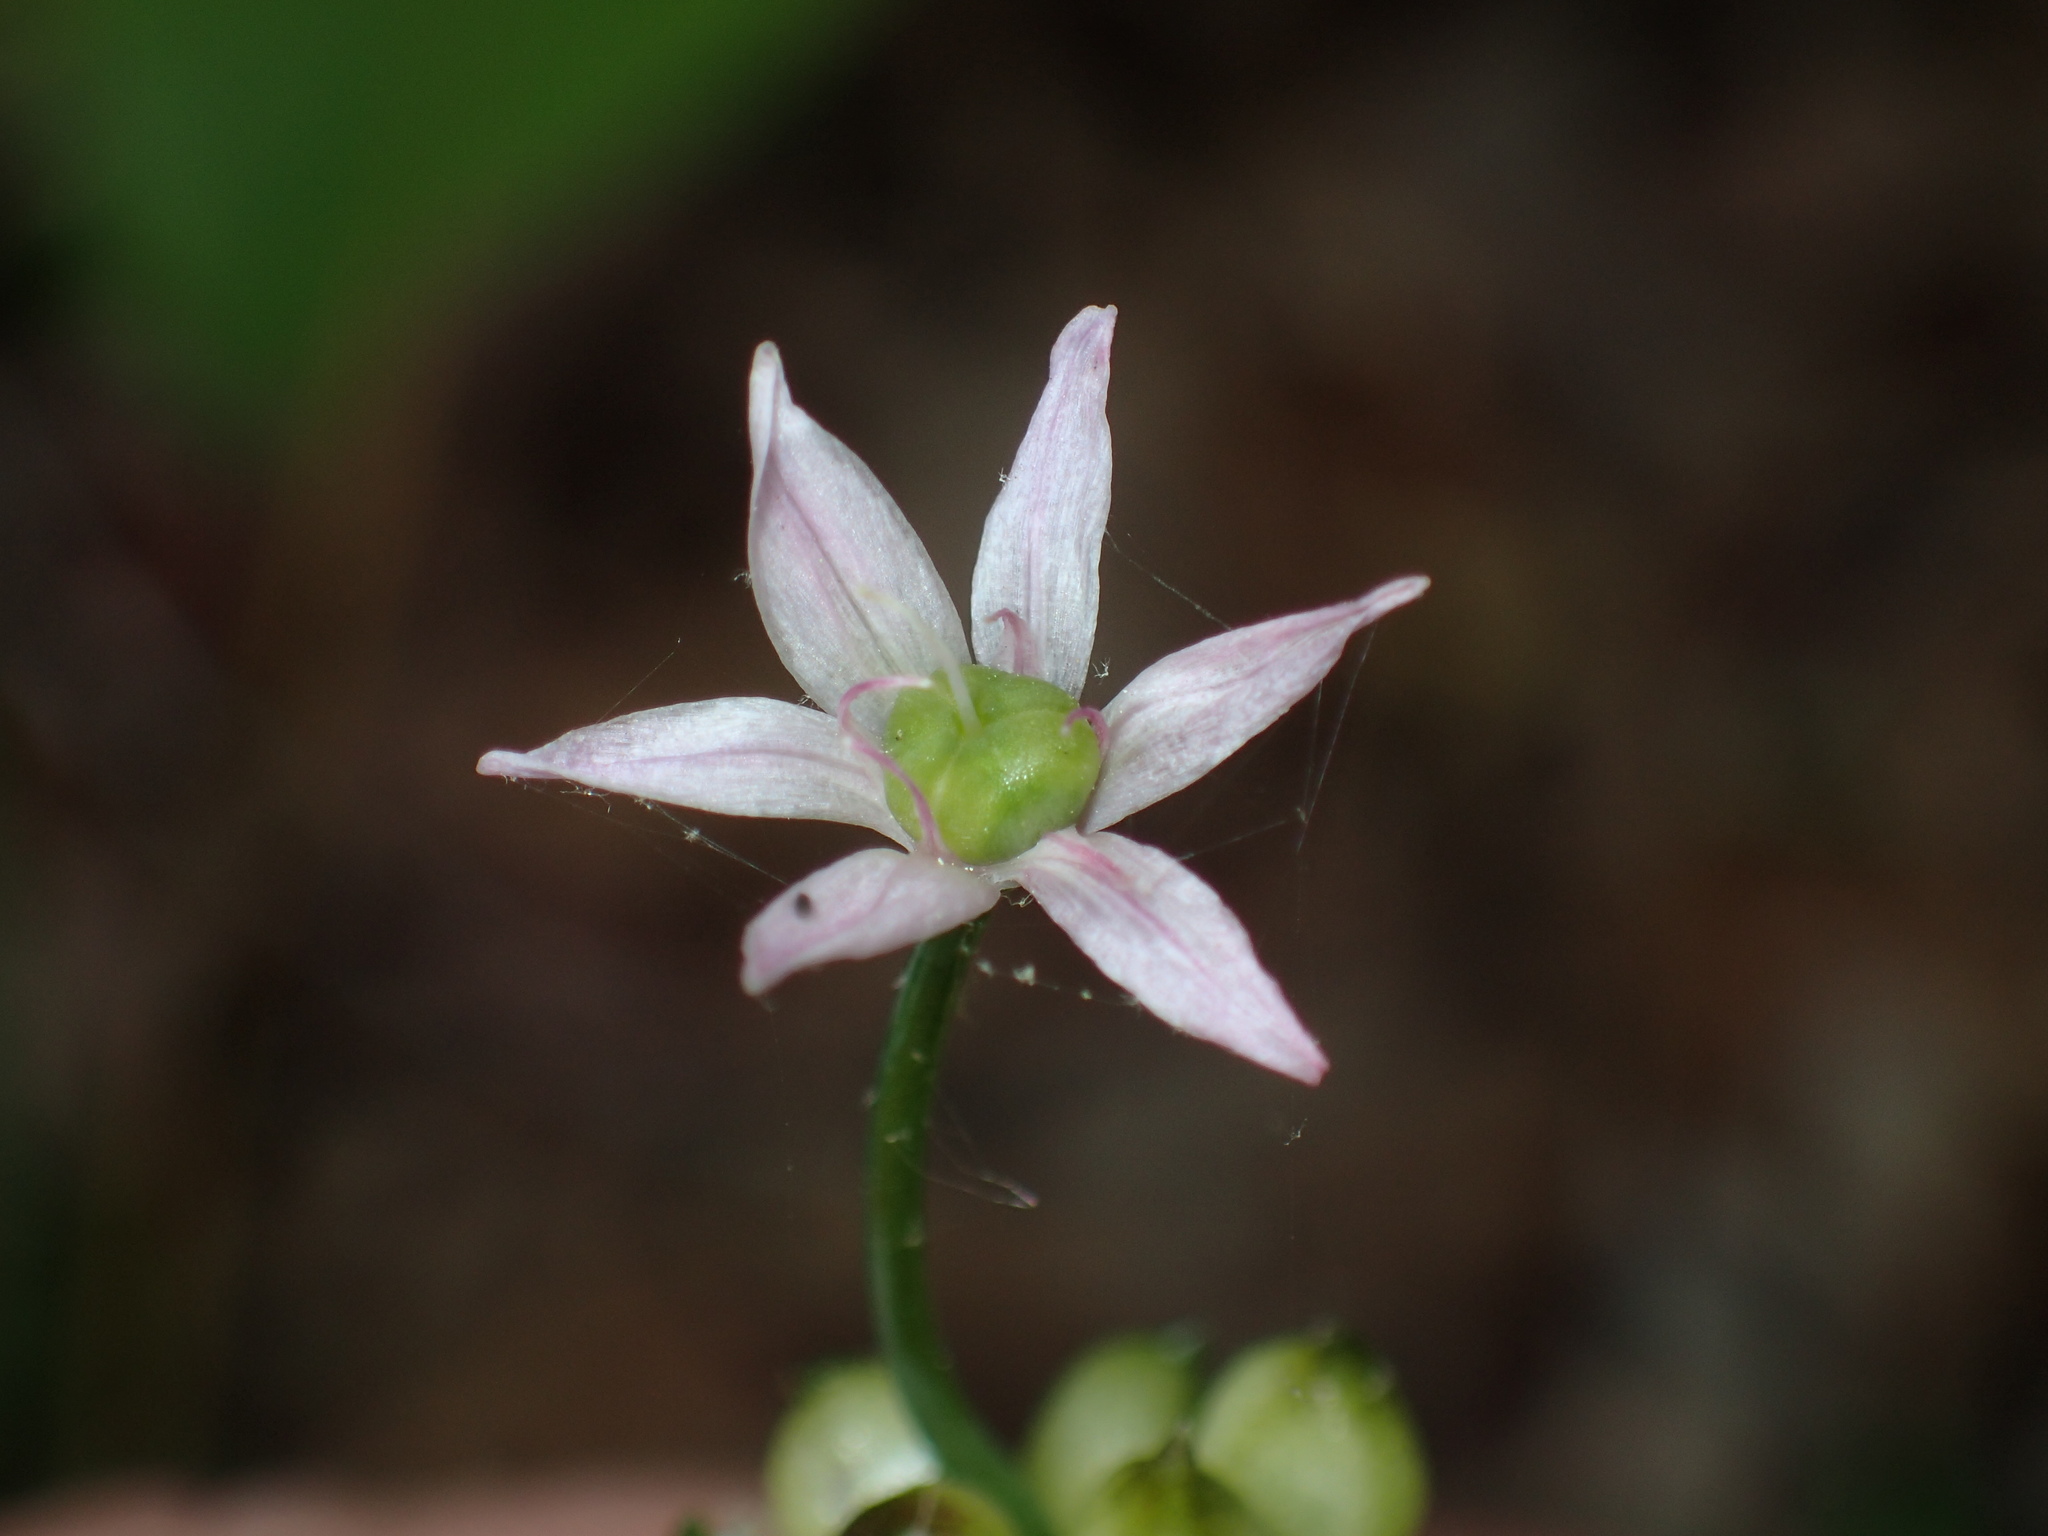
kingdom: Plantae
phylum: Tracheophyta
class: Liliopsida
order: Asparagales
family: Amaryllidaceae
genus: Allium
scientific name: Allium canadense
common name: Meadow garlic
